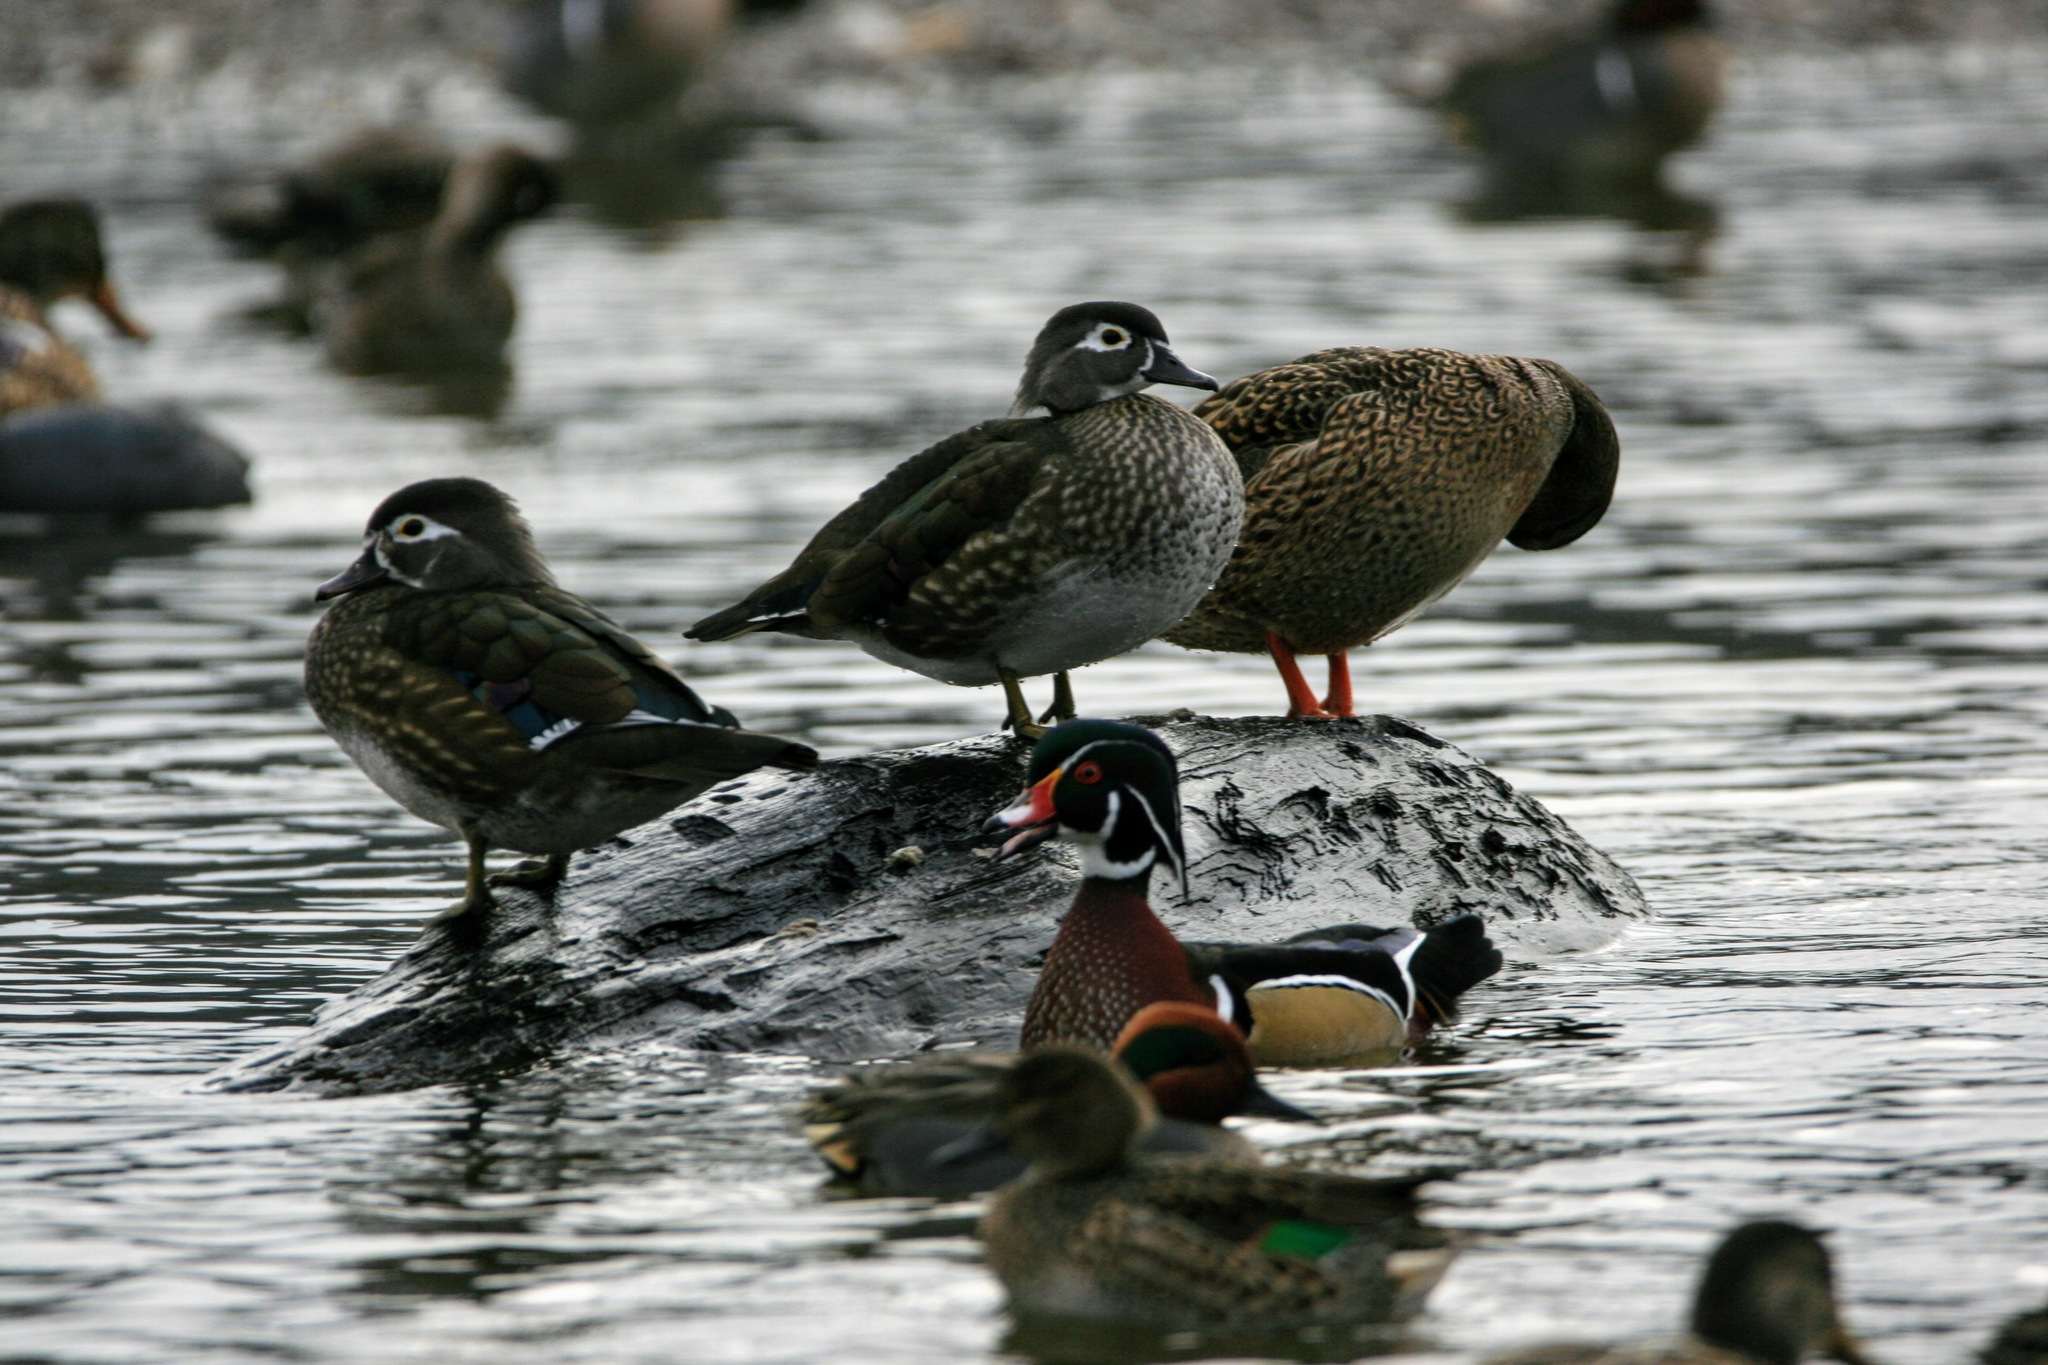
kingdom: Animalia
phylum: Chordata
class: Aves
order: Anseriformes
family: Anatidae
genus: Aix
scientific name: Aix sponsa
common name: Wood duck
